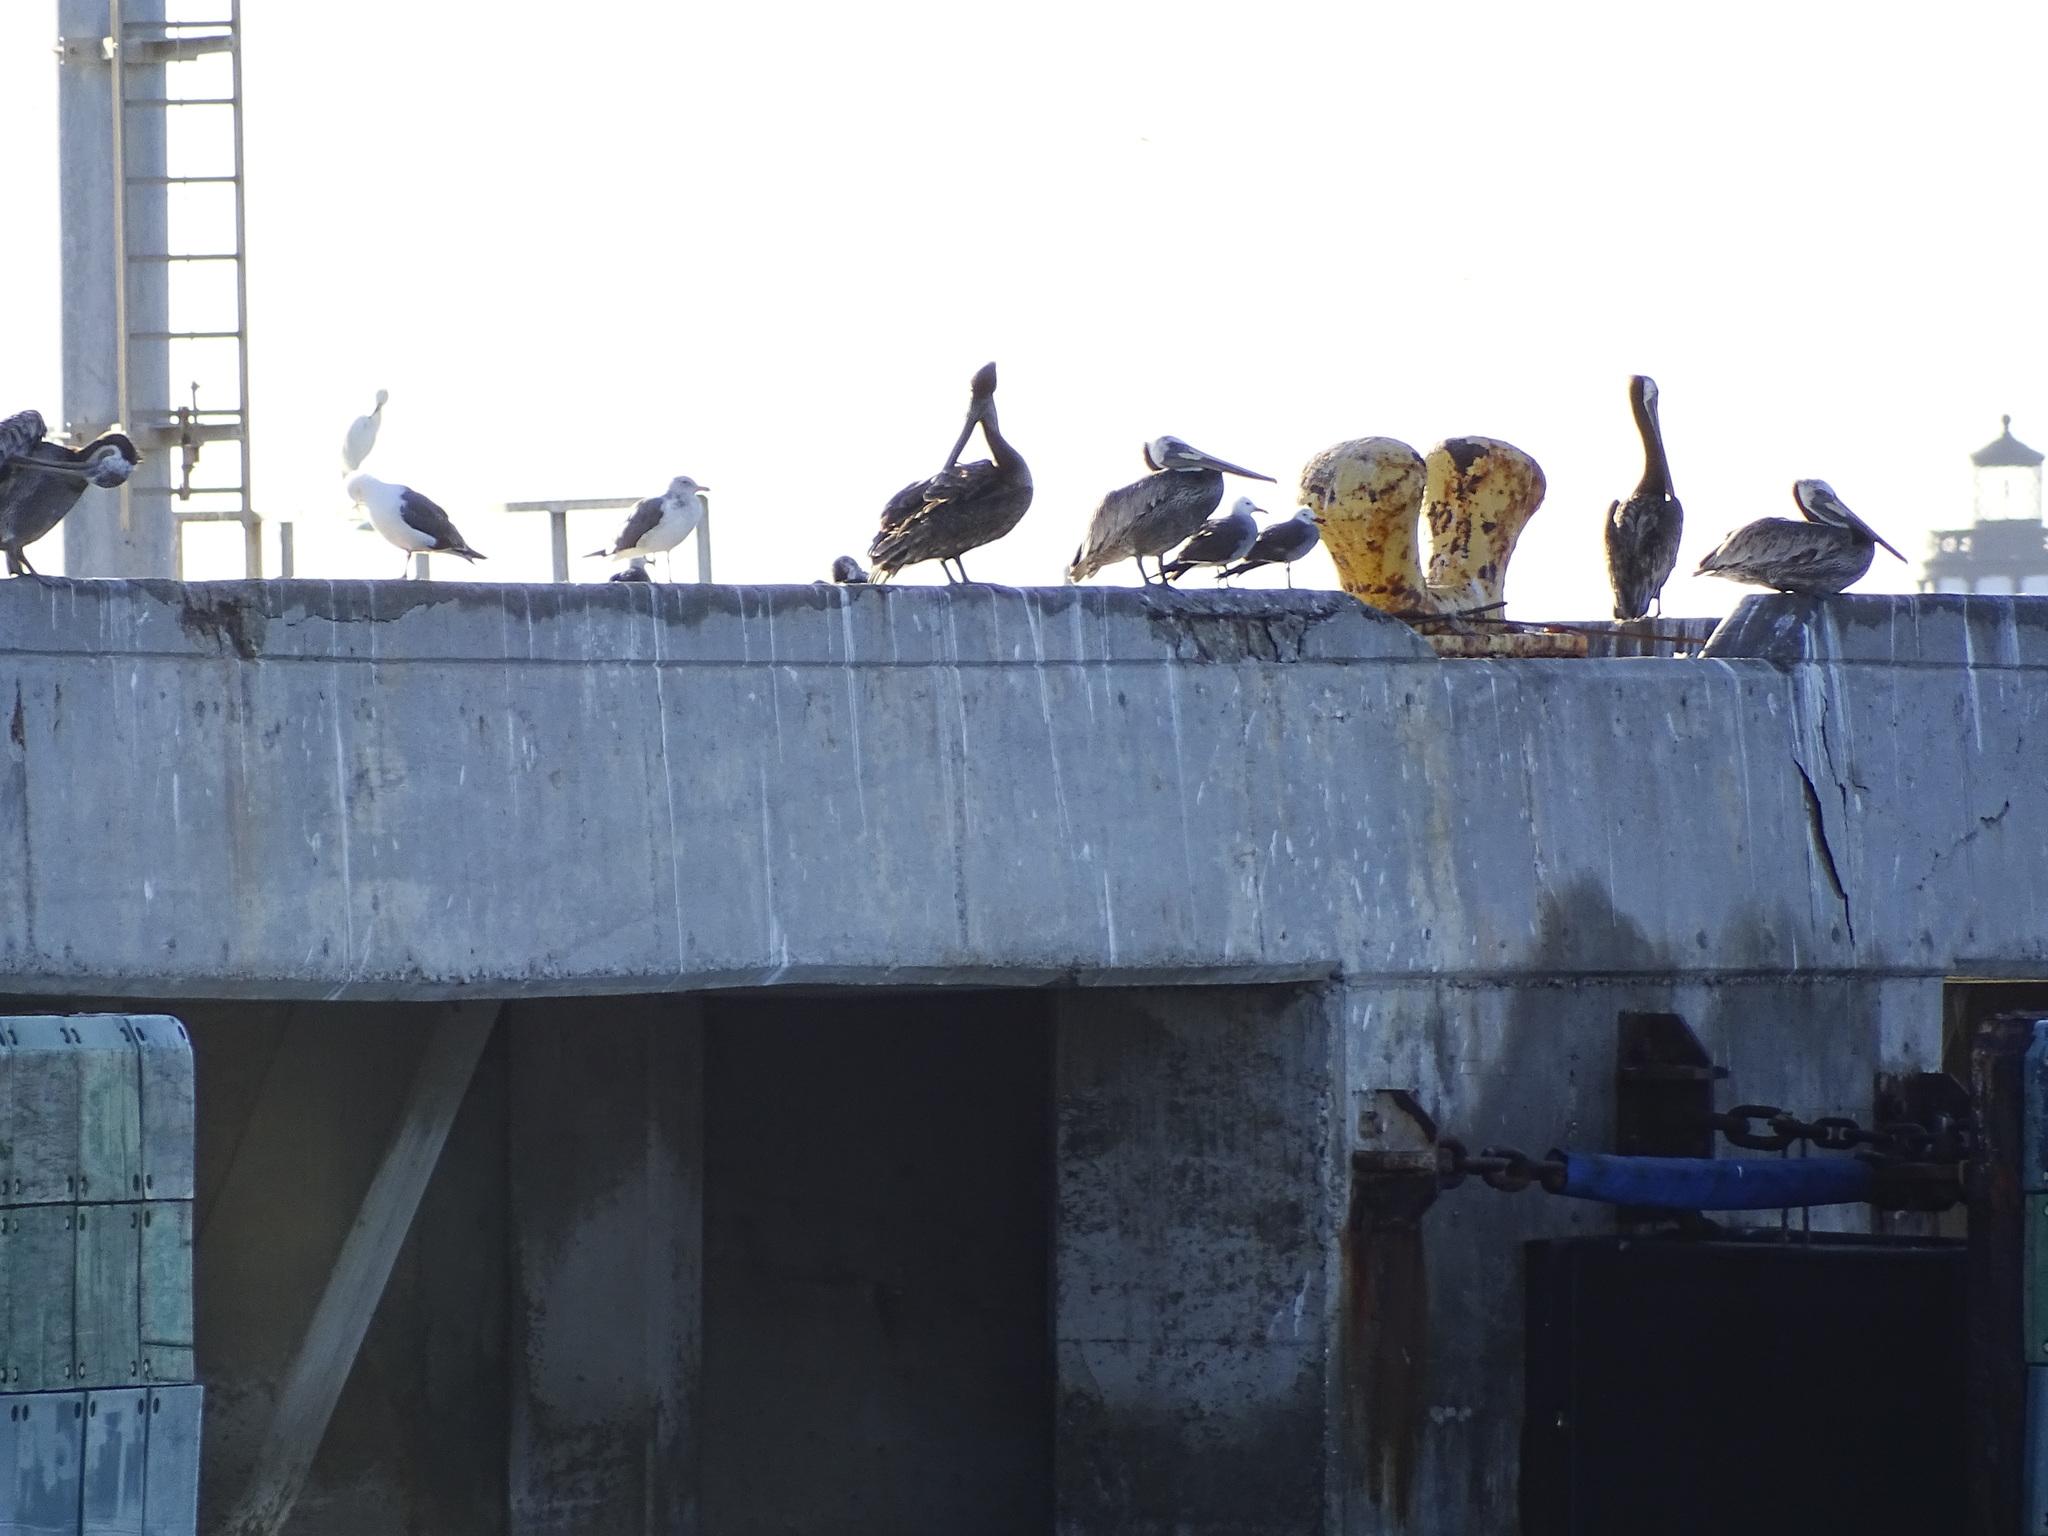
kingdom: Animalia
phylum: Chordata
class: Aves
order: Pelecaniformes
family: Pelecanidae
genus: Pelecanus
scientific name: Pelecanus occidentalis
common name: Brown pelican
